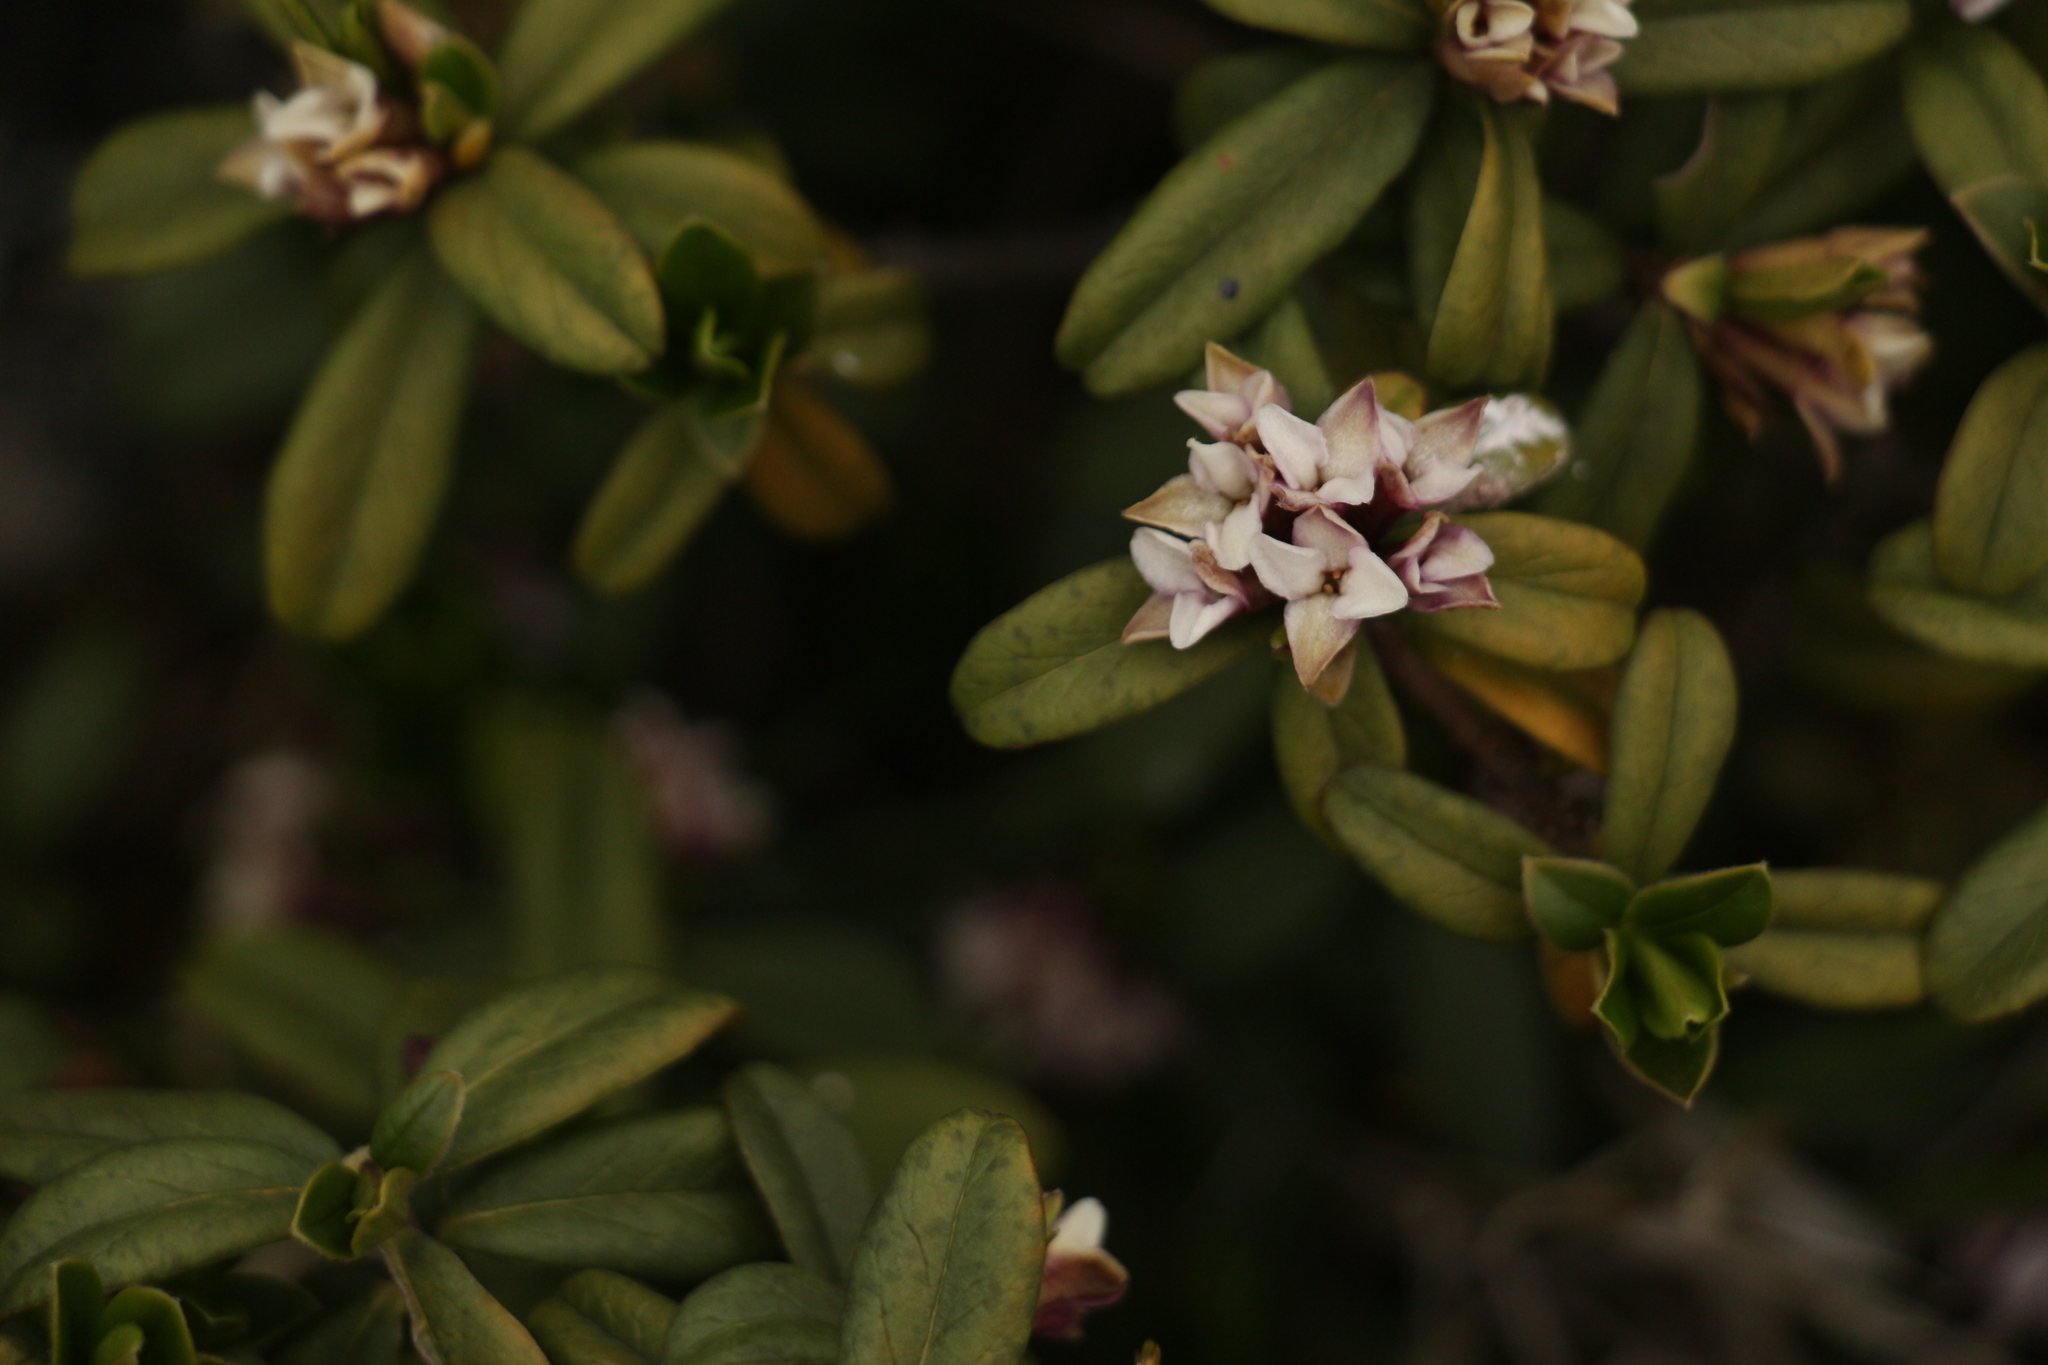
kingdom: Plantae
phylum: Tracheophyta
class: Magnoliopsida
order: Malvales
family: Thymelaeaceae
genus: Daphne
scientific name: Daphne retusa
